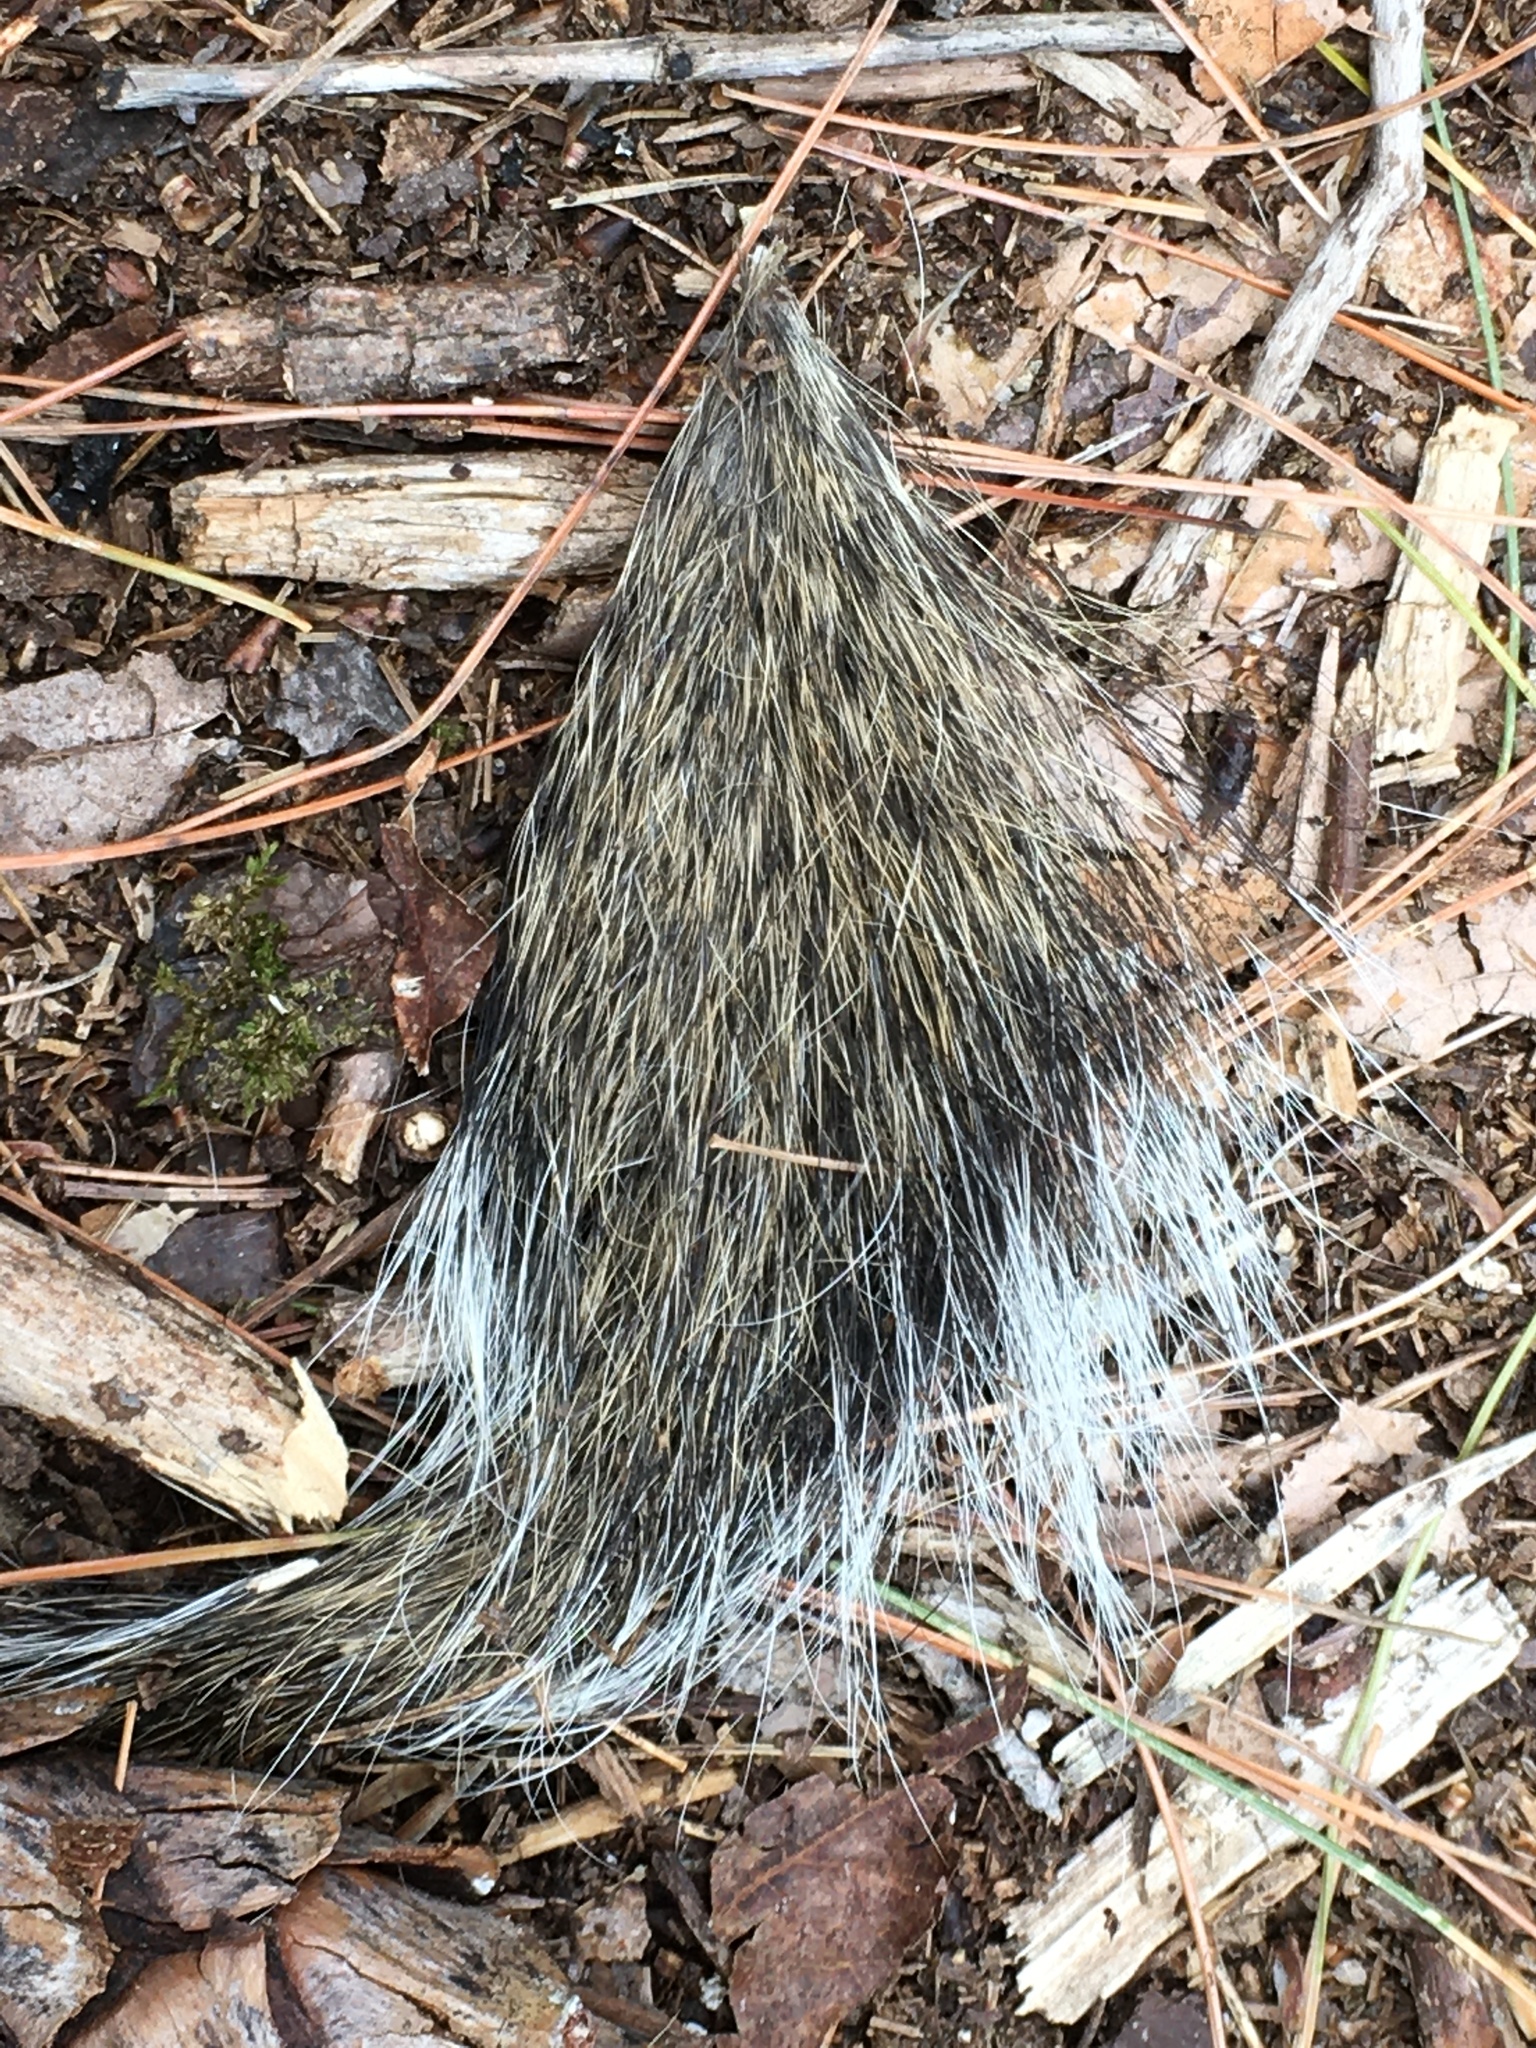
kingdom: Animalia
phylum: Chordata
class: Mammalia
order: Rodentia
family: Sciuridae
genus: Sciurus
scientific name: Sciurus carolinensis
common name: Eastern gray squirrel
